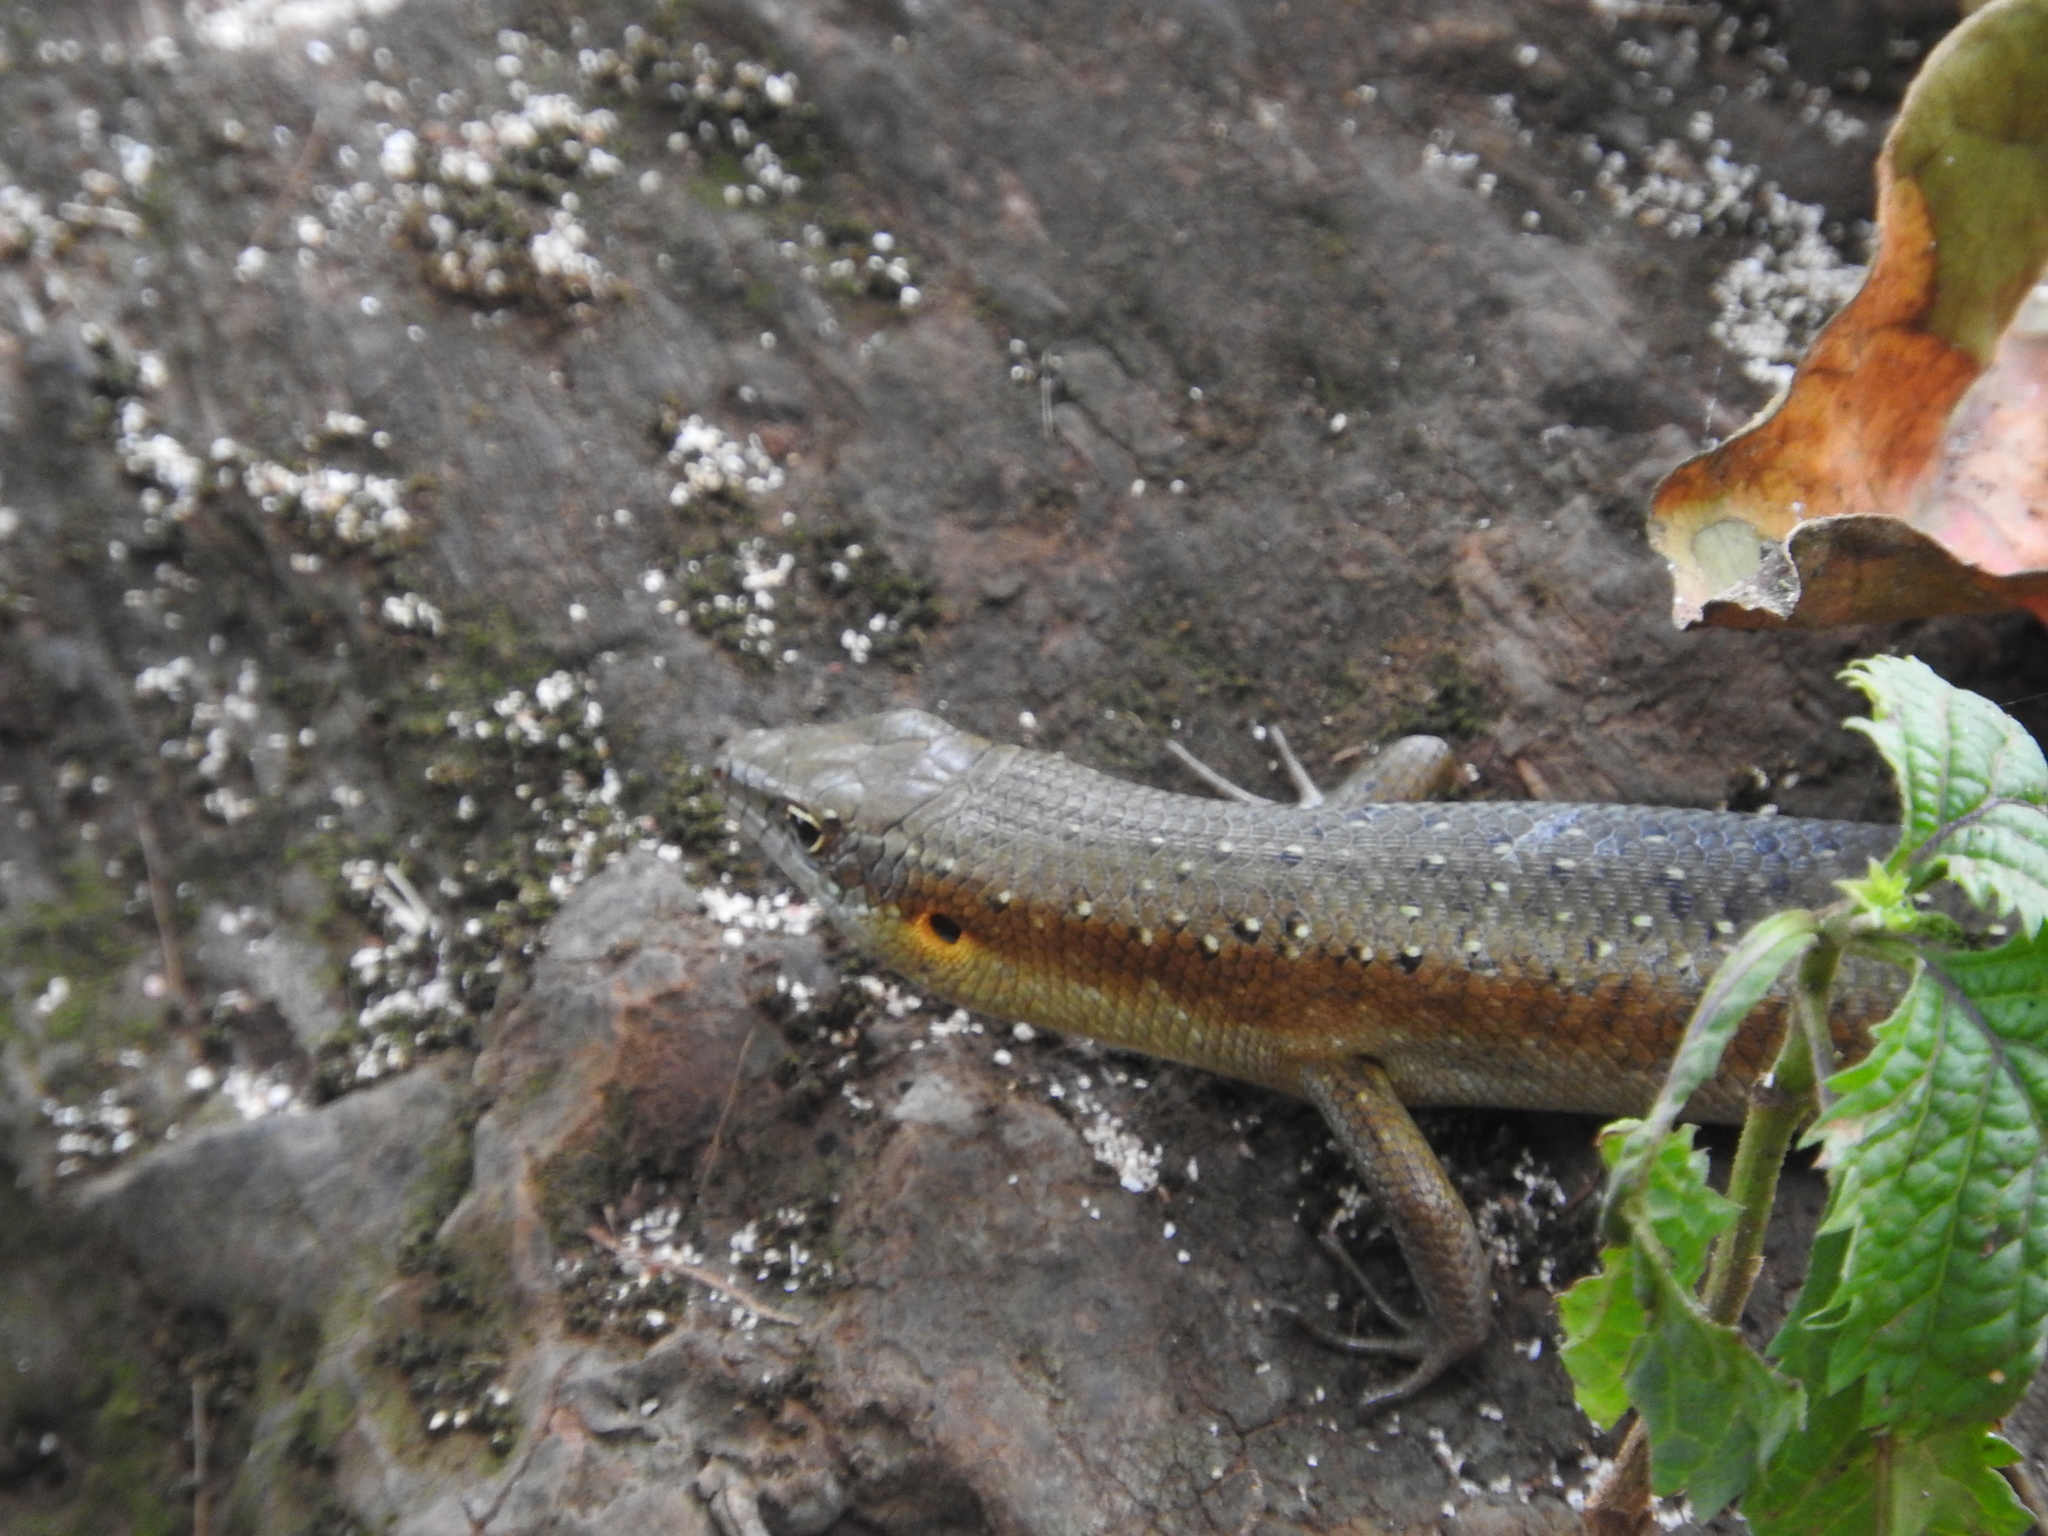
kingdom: Animalia
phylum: Chordata
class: Squamata
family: Scincidae
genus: Trachylepis
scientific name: Trachylepis thomensis
